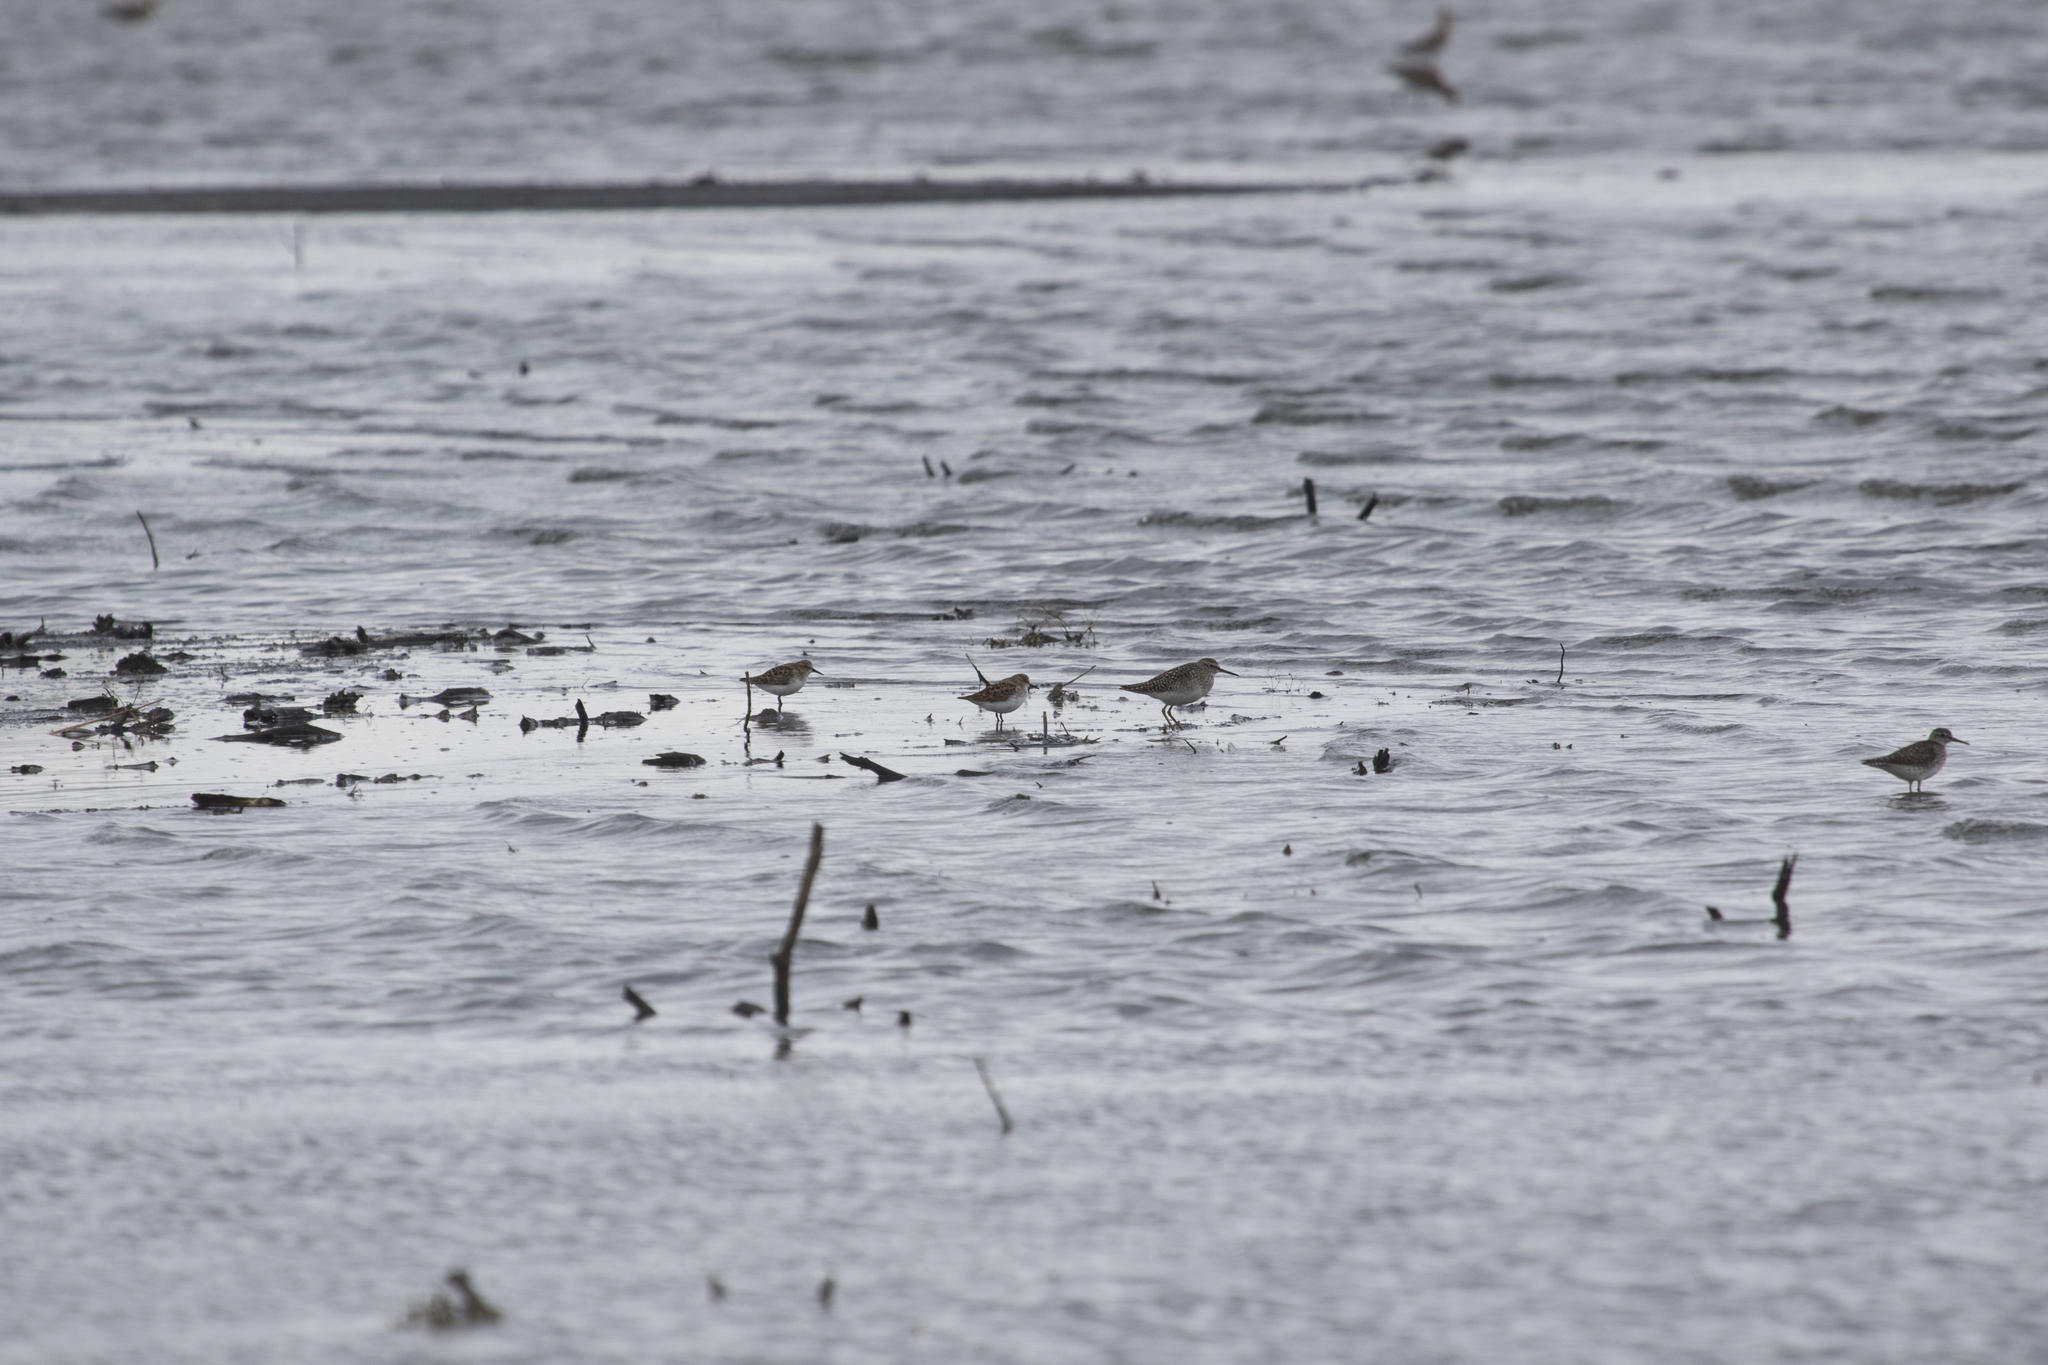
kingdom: Animalia
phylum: Chordata
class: Aves
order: Charadriiformes
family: Scolopacidae
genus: Tringa
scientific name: Tringa glareola
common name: Wood sandpiper
